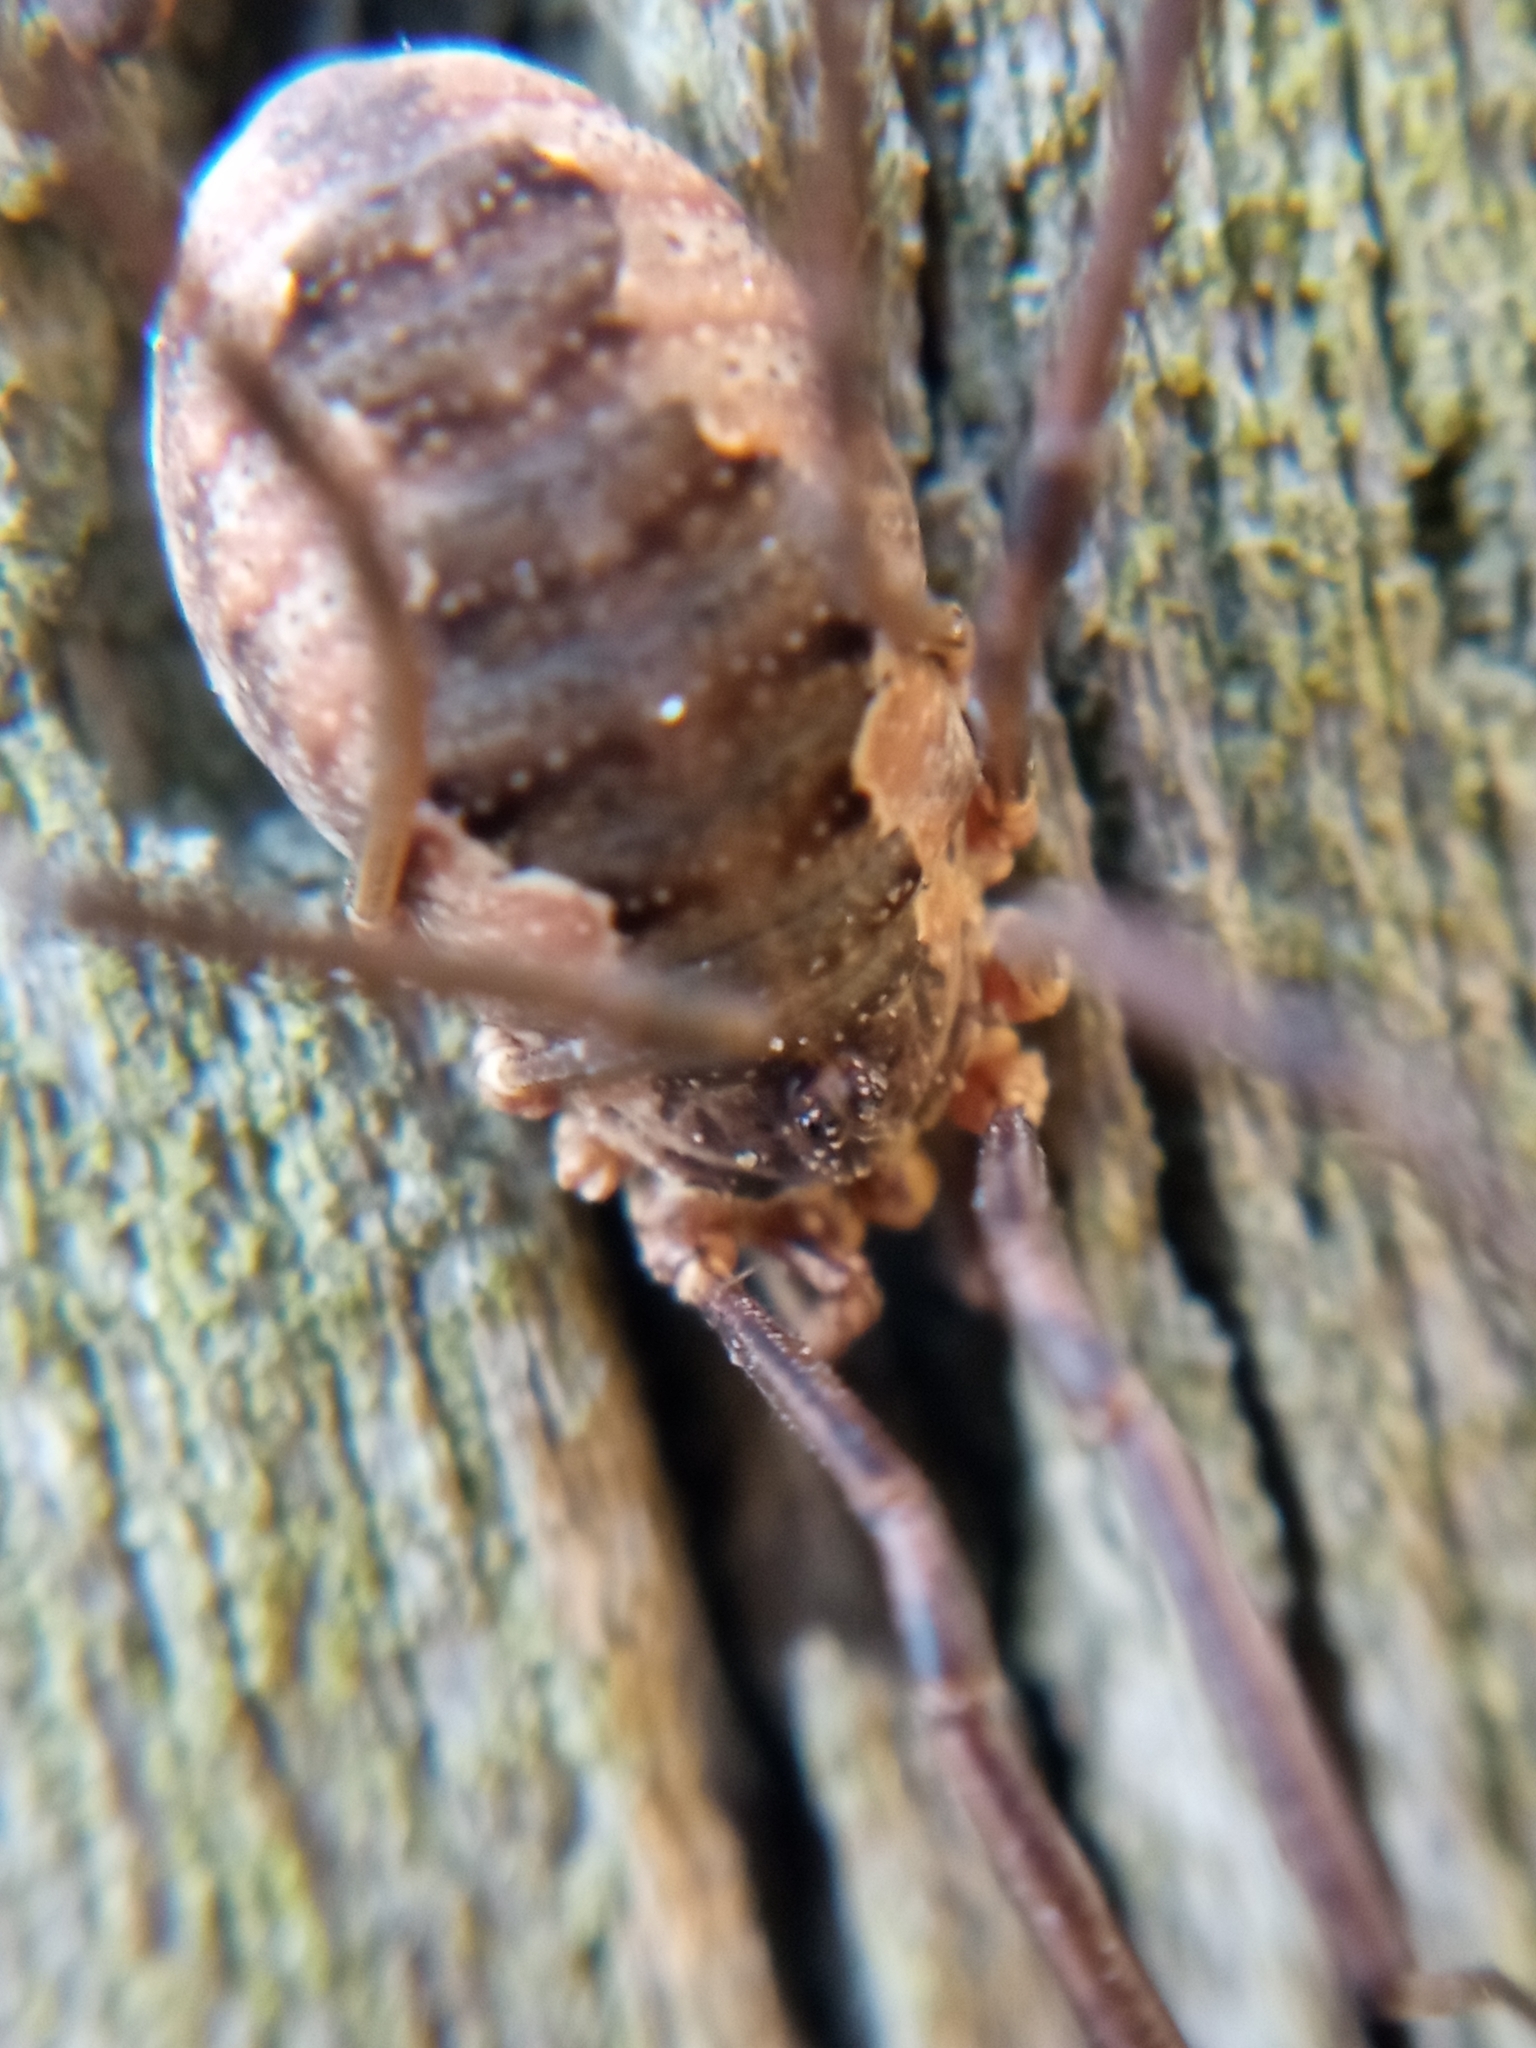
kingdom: Animalia
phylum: Arthropoda
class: Arachnida
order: Opiliones
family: Phalangiidae
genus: Phalangium
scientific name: Phalangium opilio
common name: Daddy longleg
